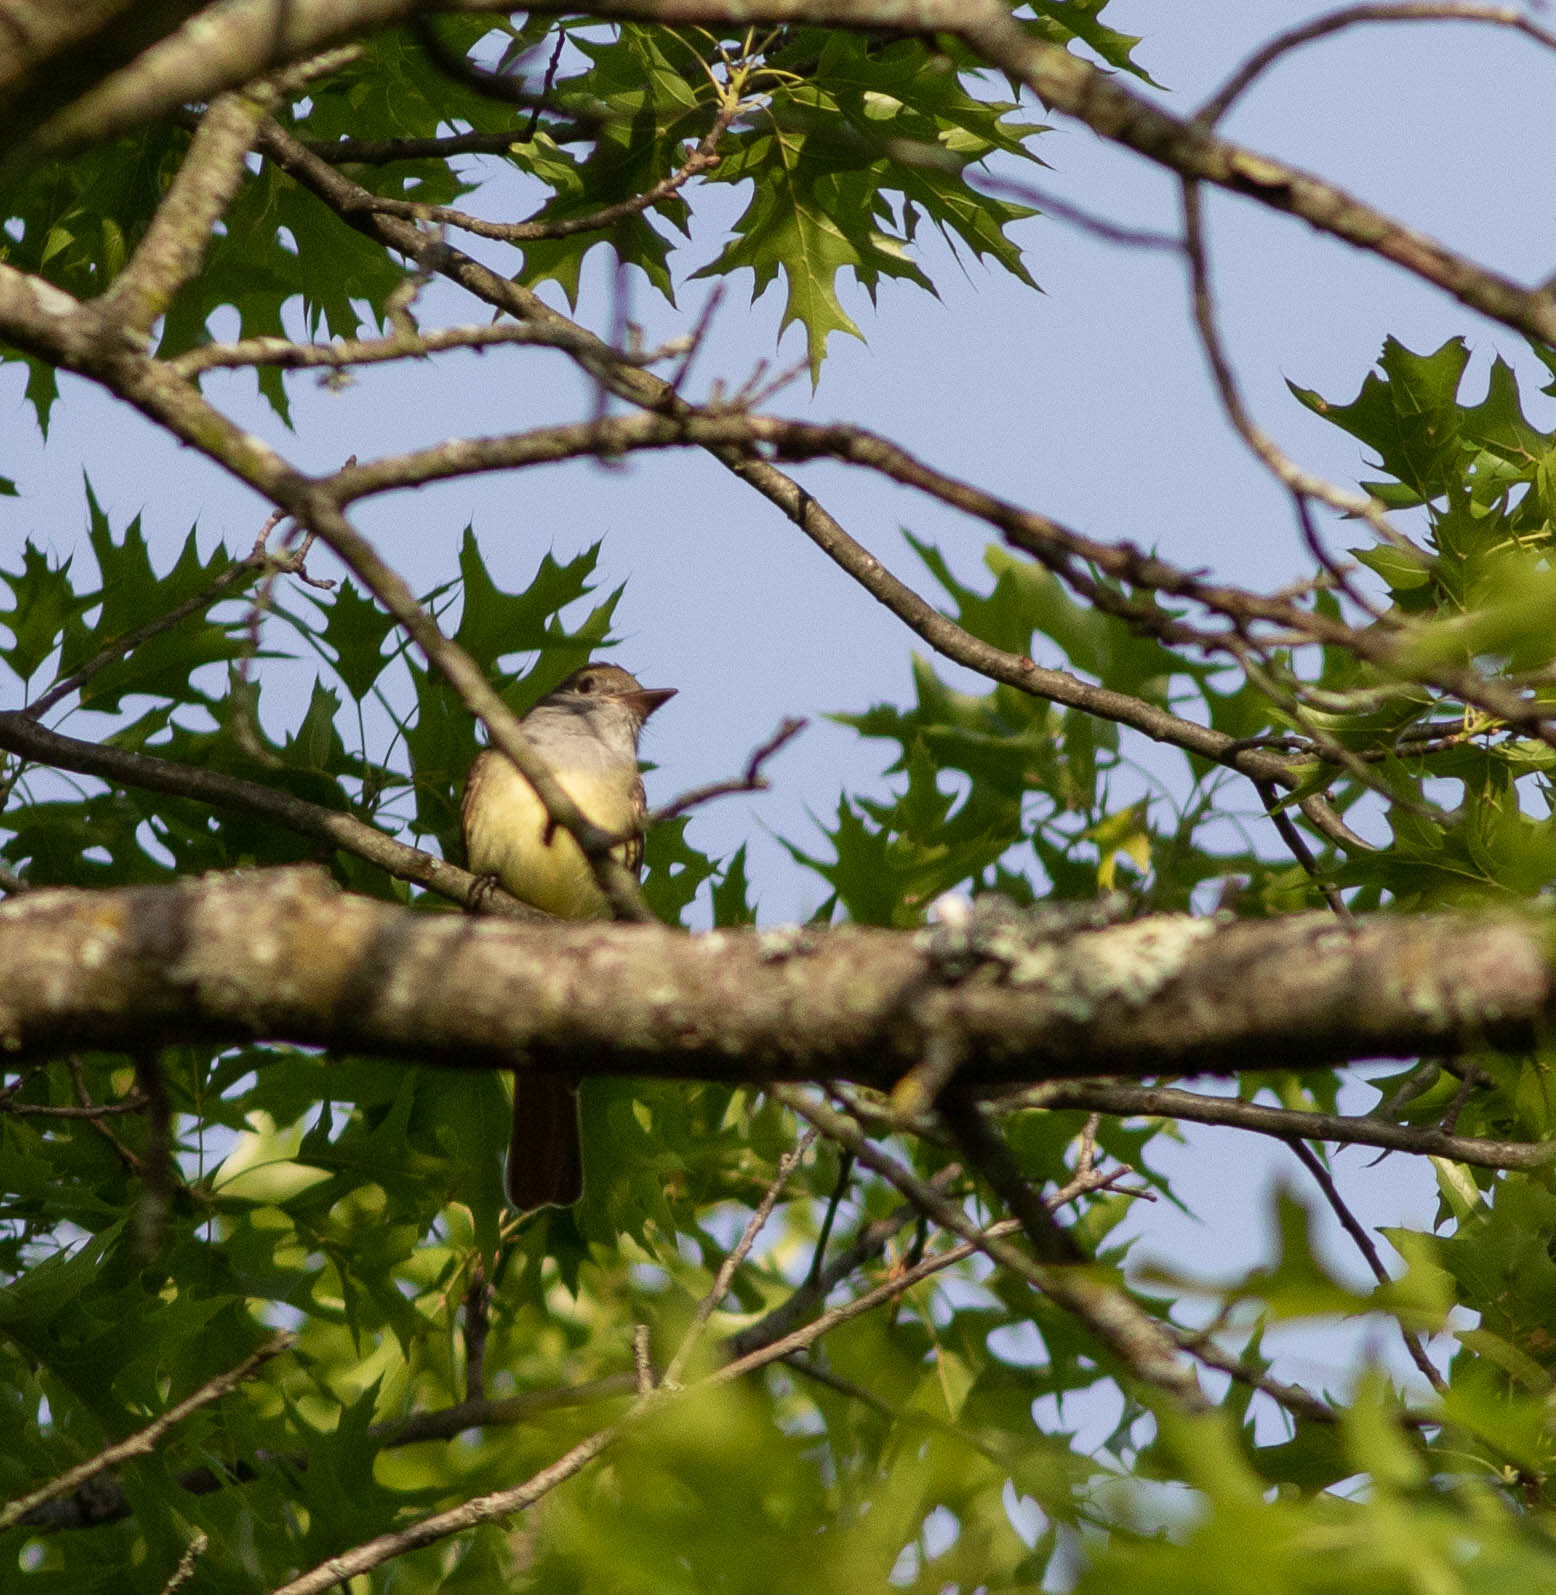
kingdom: Animalia
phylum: Chordata
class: Aves
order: Passeriformes
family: Tyrannidae
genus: Myiarchus
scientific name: Myiarchus crinitus
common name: Great crested flycatcher
